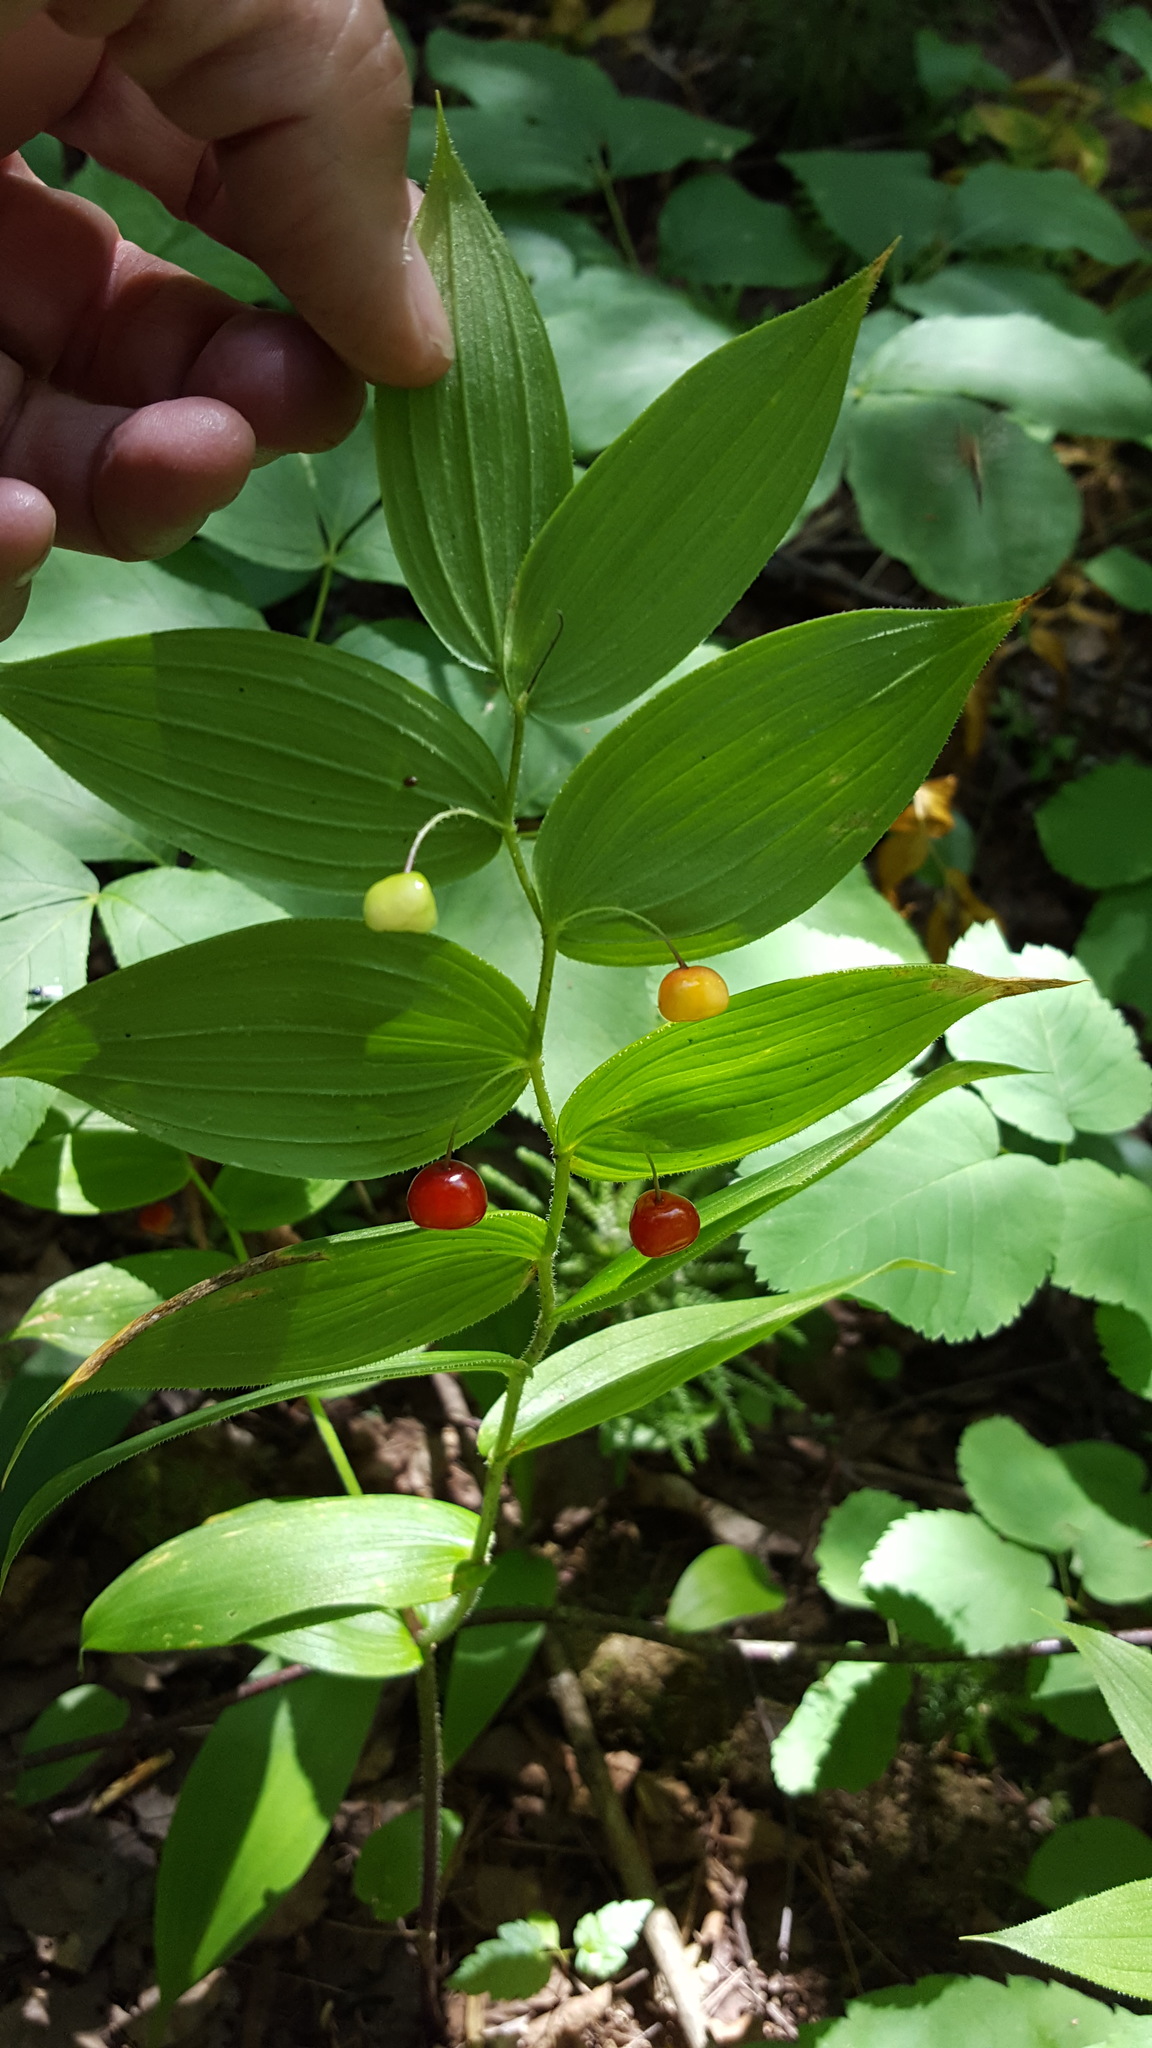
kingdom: Plantae
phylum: Tracheophyta
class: Liliopsida
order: Liliales
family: Liliaceae
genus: Streptopus
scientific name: Streptopus lanceolatus
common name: Rose mandarin
